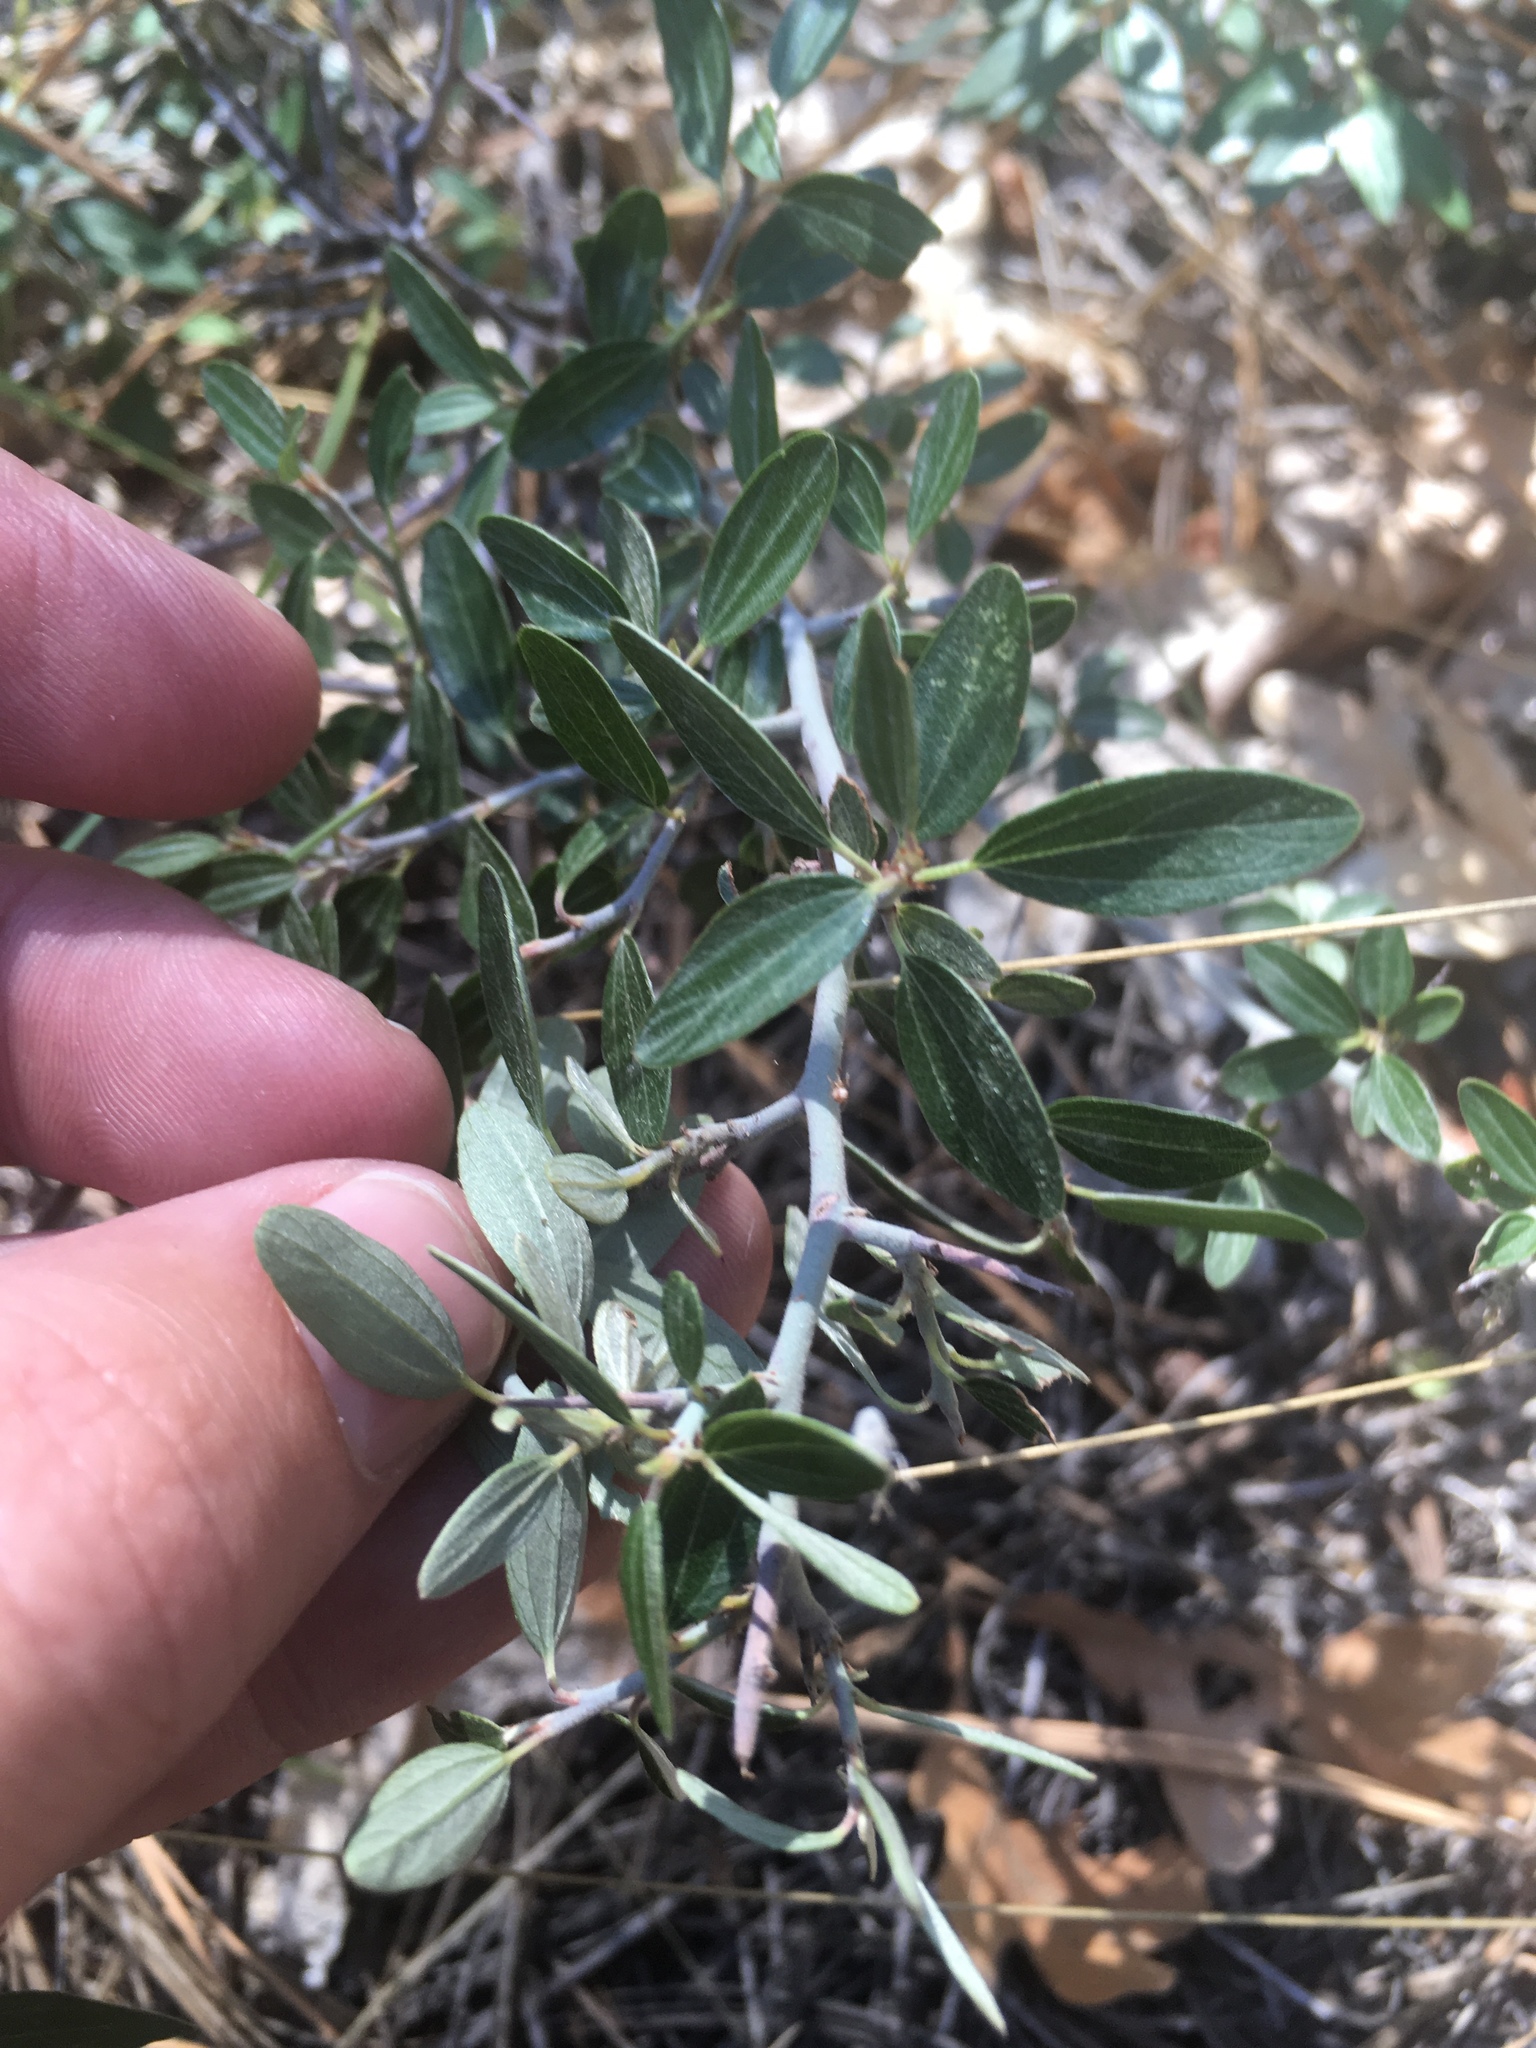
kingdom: Plantae
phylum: Tracheophyta
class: Magnoliopsida
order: Rosales
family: Rhamnaceae
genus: Ceanothus
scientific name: Ceanothus fendleri
